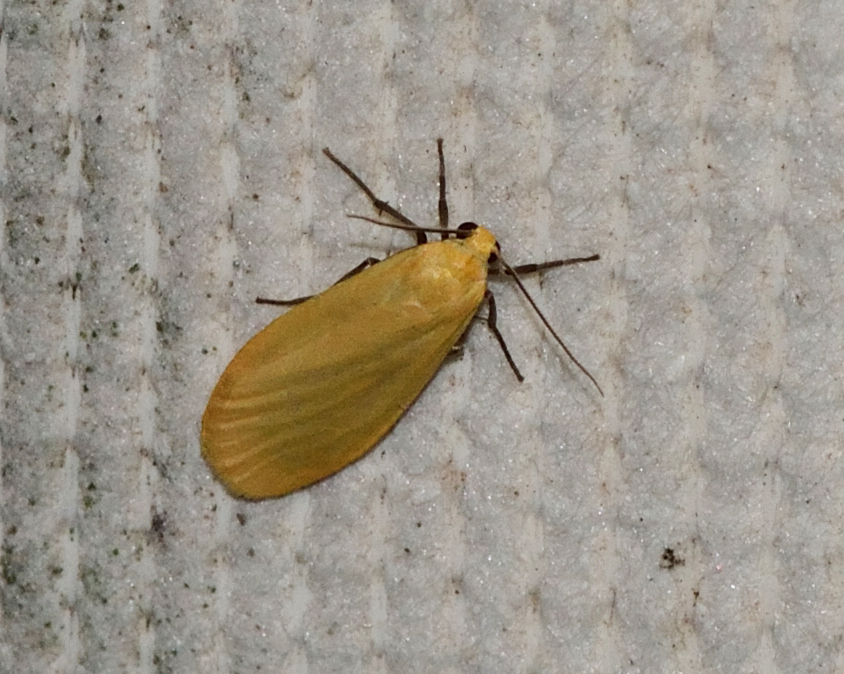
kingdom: Animalia
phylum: Arthropoda
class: Insecta
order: Lepidoptera
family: Erebidae
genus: Wittia
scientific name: Wittia sororcula
